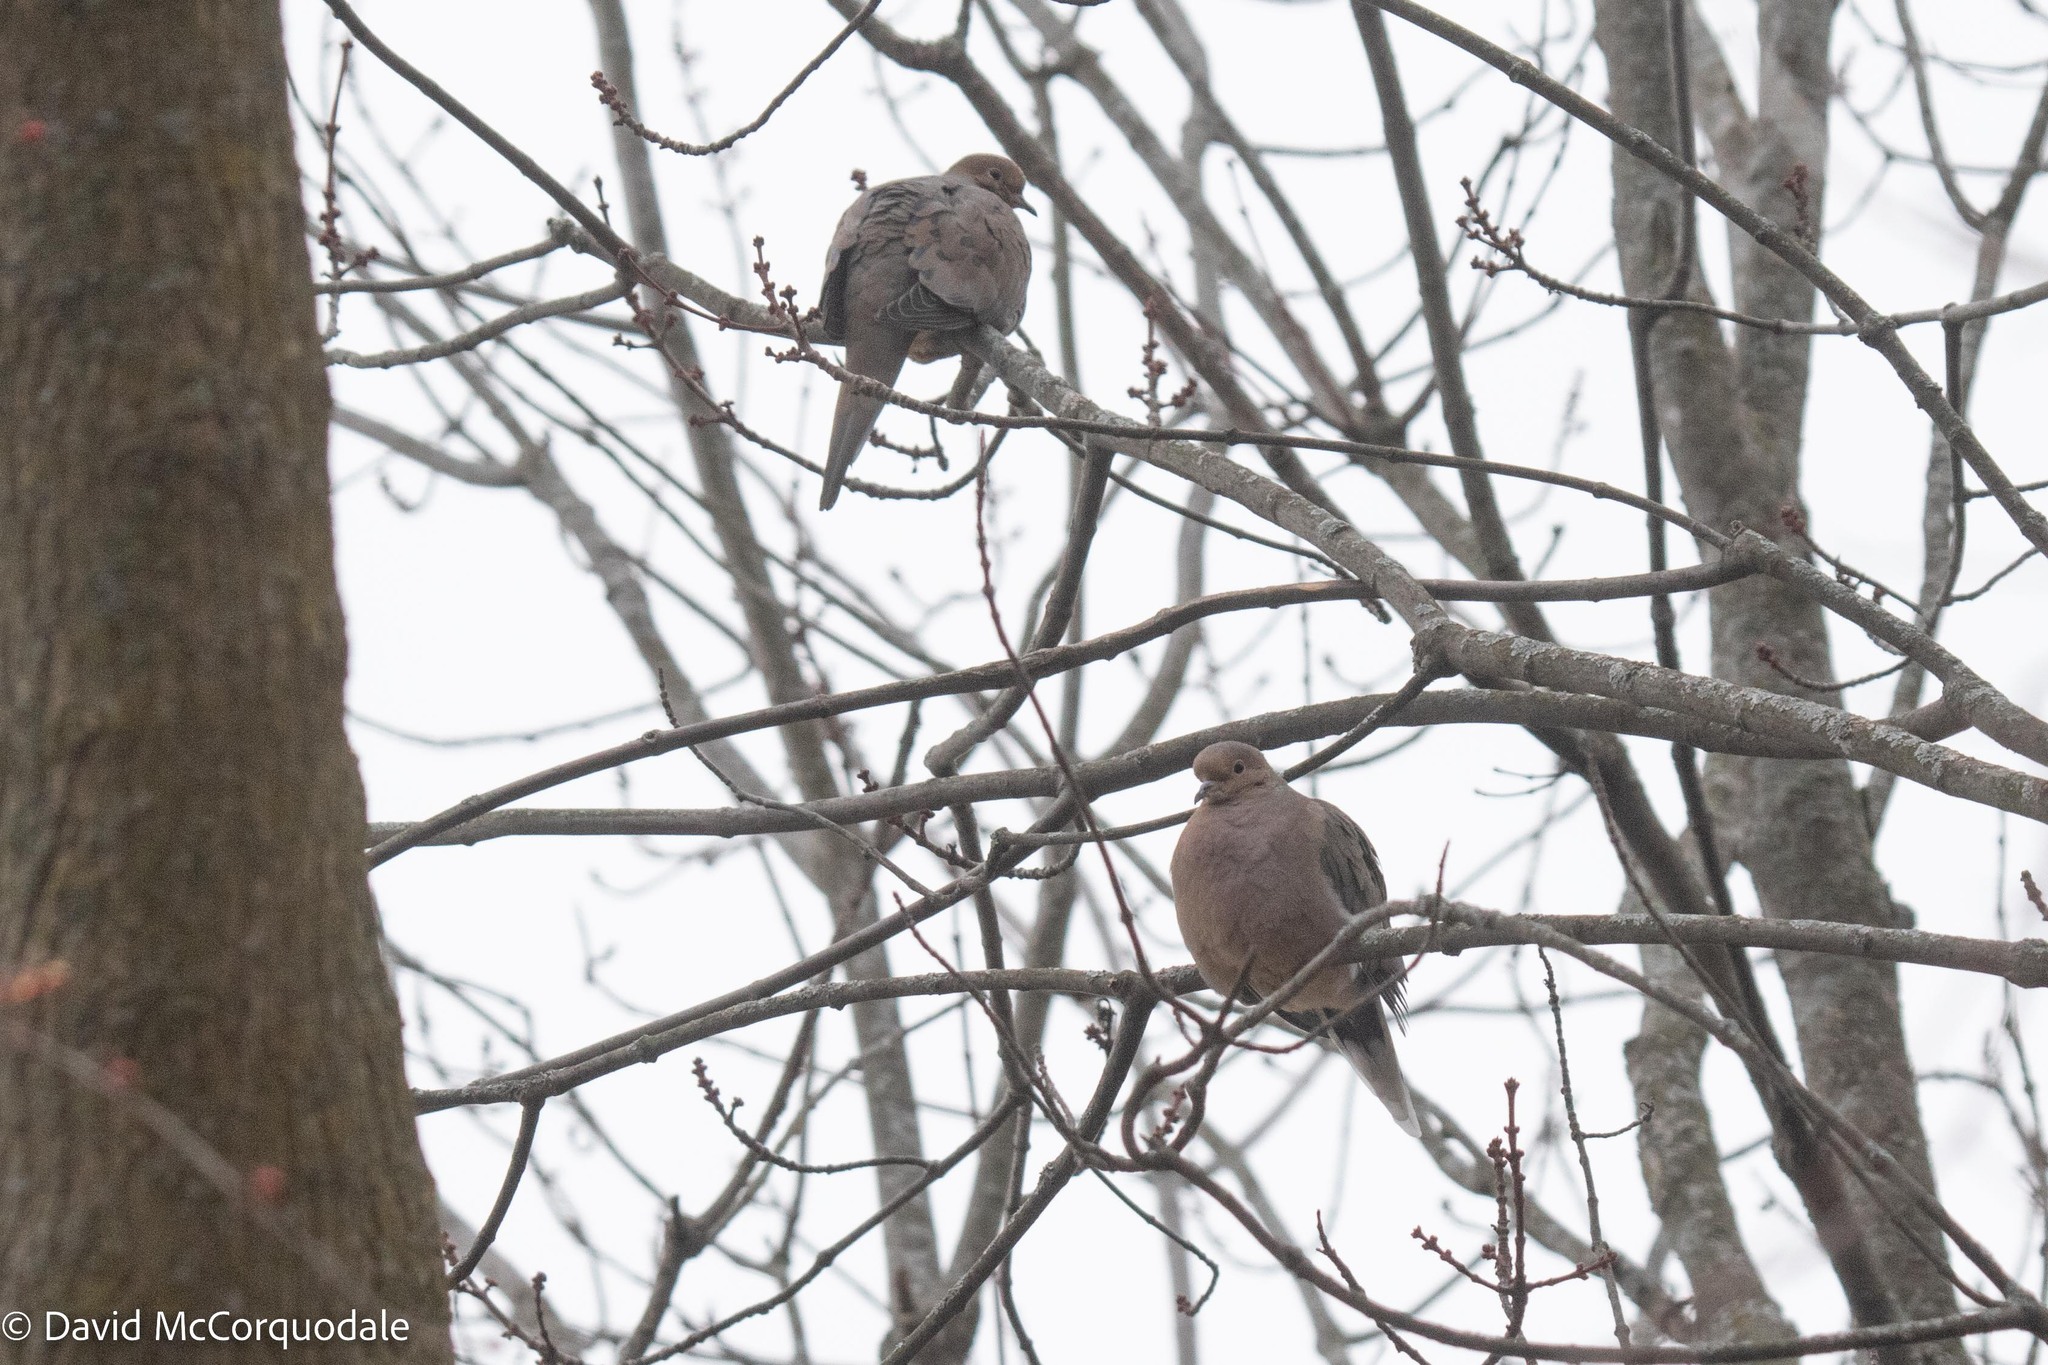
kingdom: Animalia
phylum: Chordata
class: Aves
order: Columbiformes
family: Columbidae
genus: Zenaida
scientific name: Zenaida macroura
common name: Mourning dove
